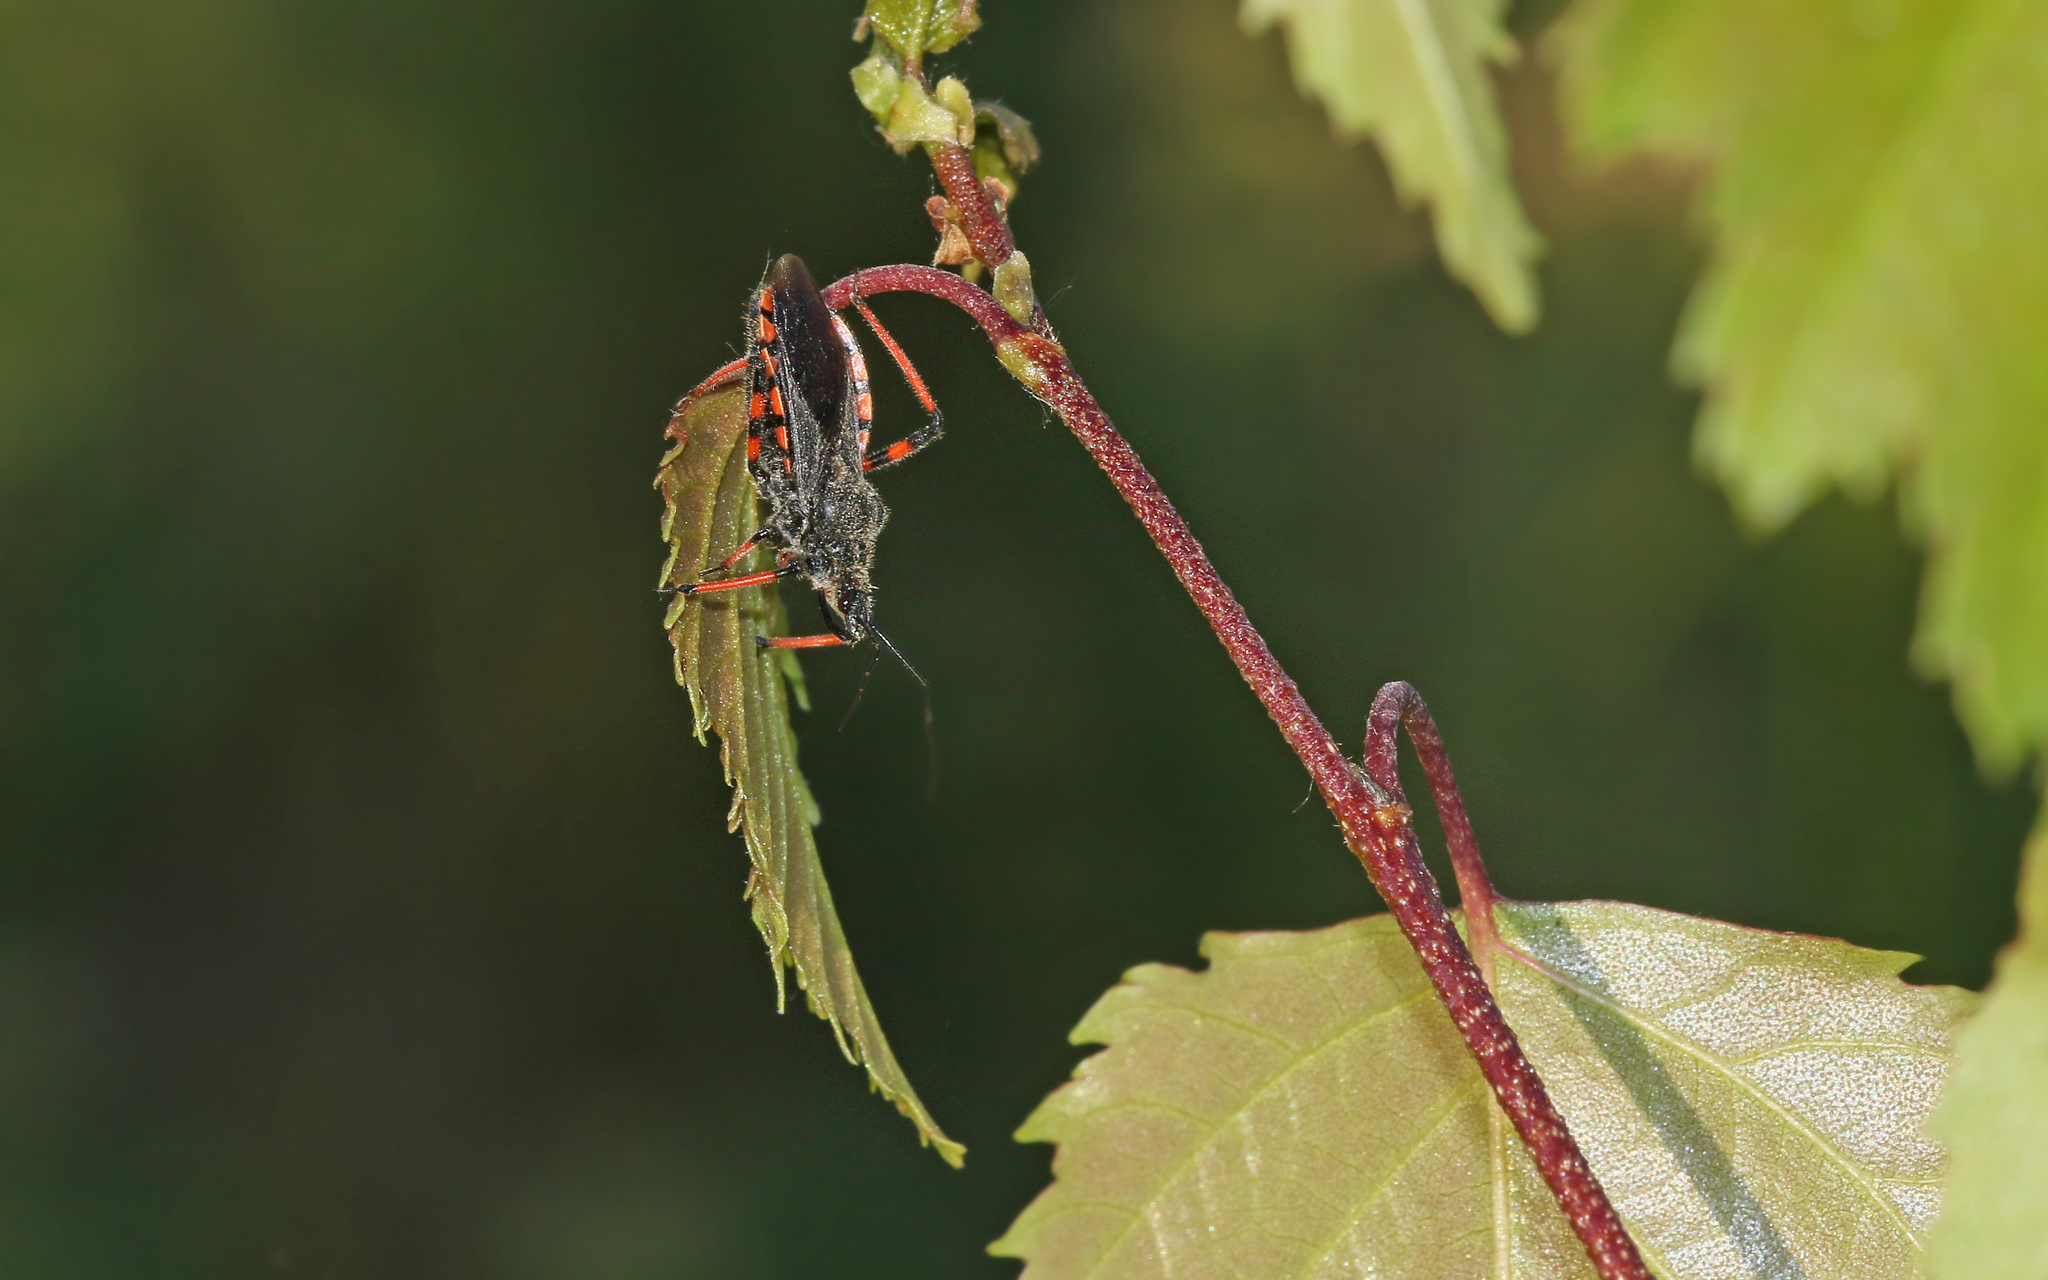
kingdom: Animalia
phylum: Arthropoda
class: Insecta
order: Hemiptera
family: Reduviidae
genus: Rhynocoris
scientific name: Rhynocoris annulatus
